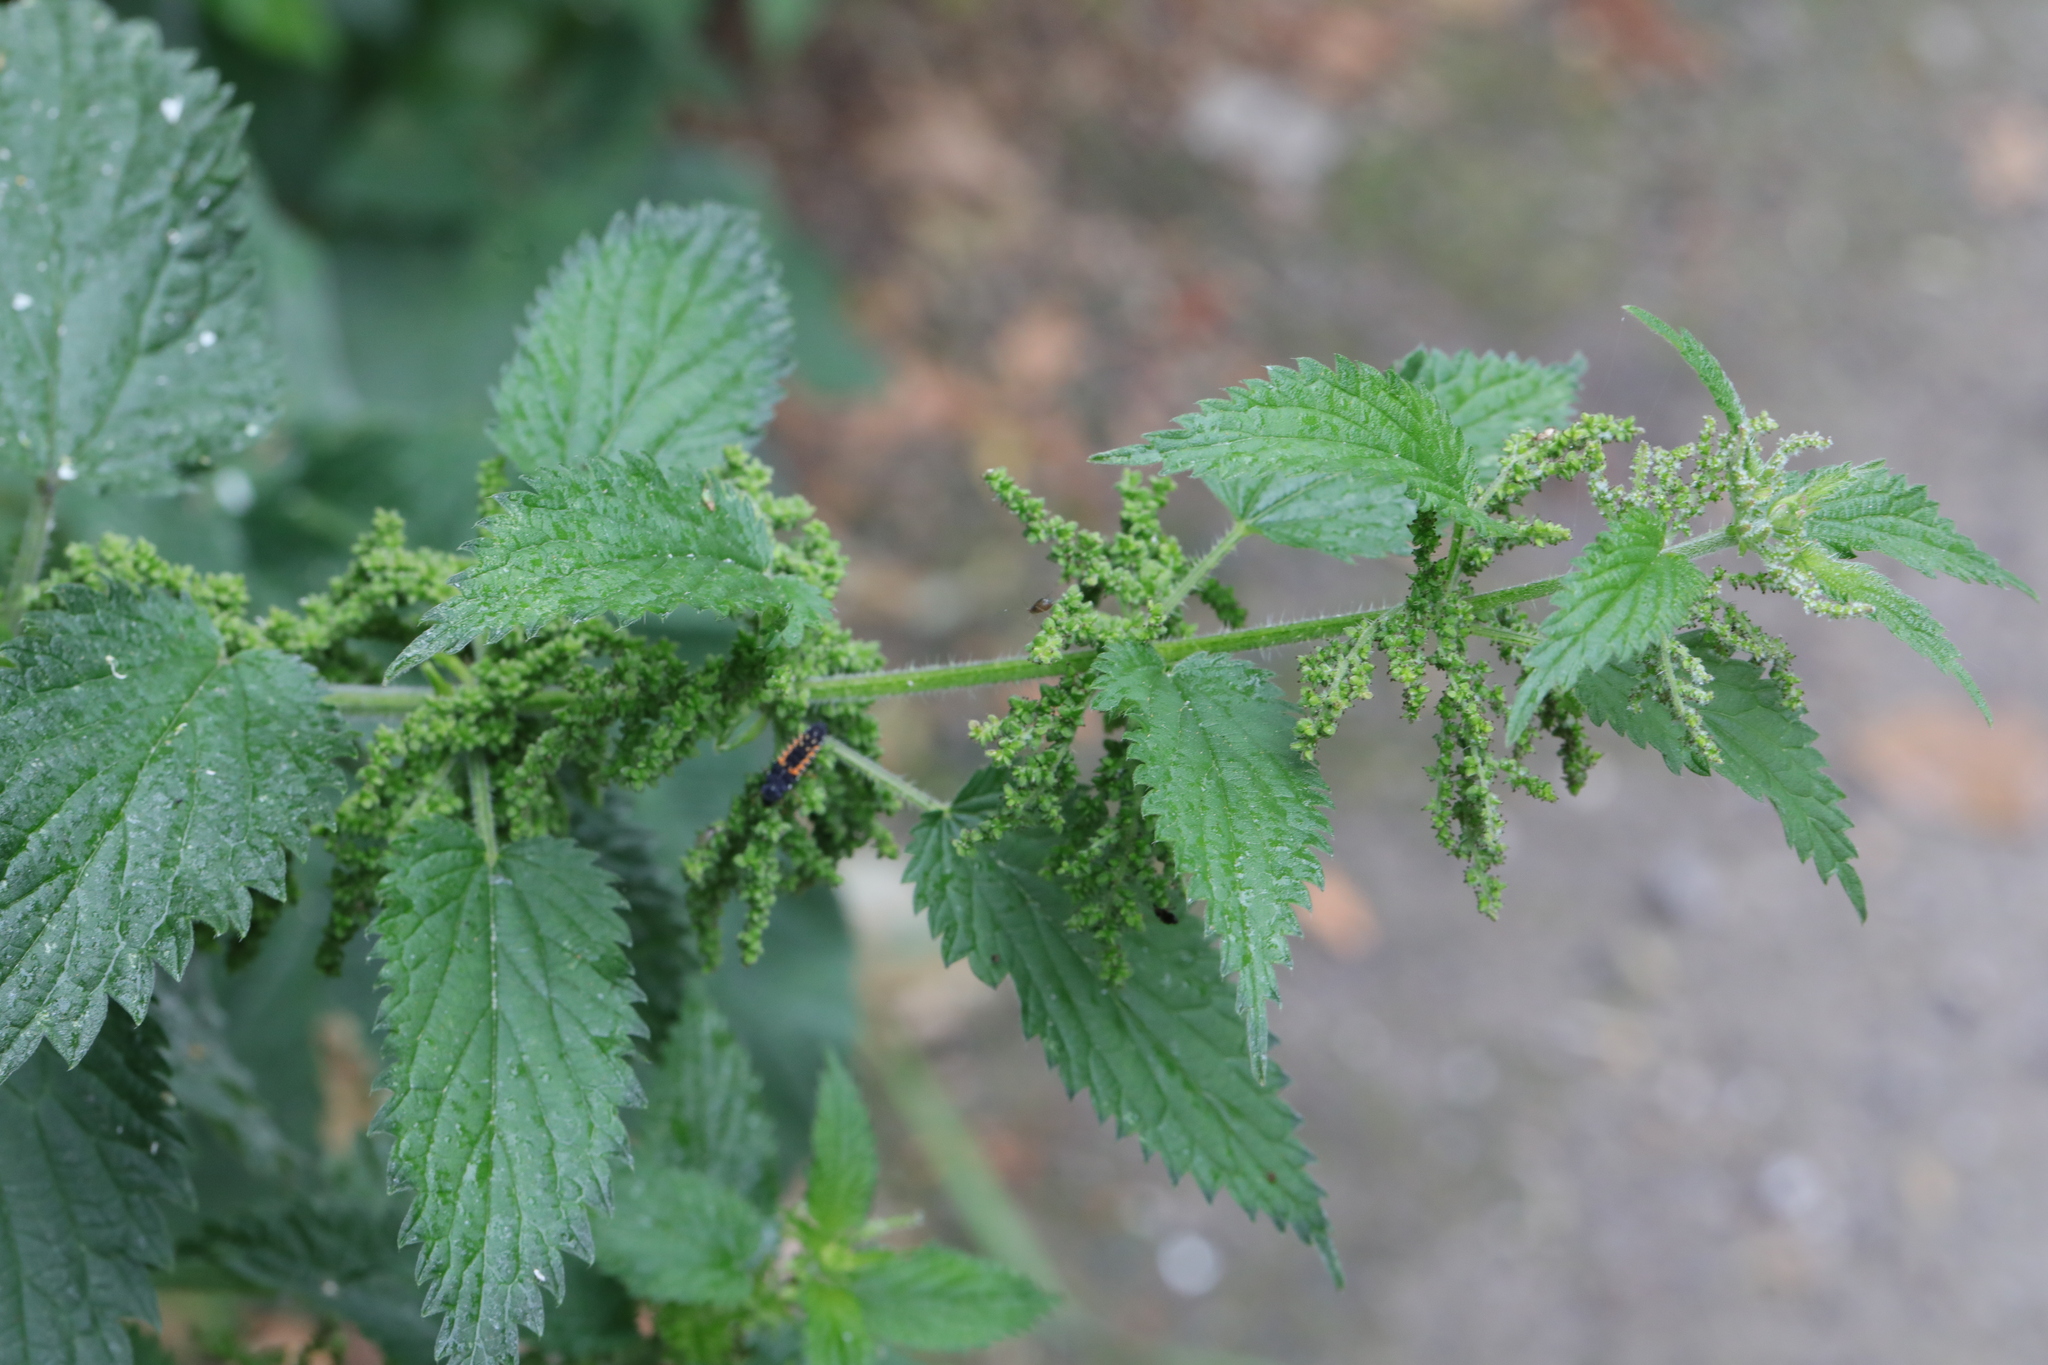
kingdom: Plantae
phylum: Tracheophyta
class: Magnoliopsida
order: Rosales
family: Urticaceae
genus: Urtica
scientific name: Urtica dioica
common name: Common nettle
